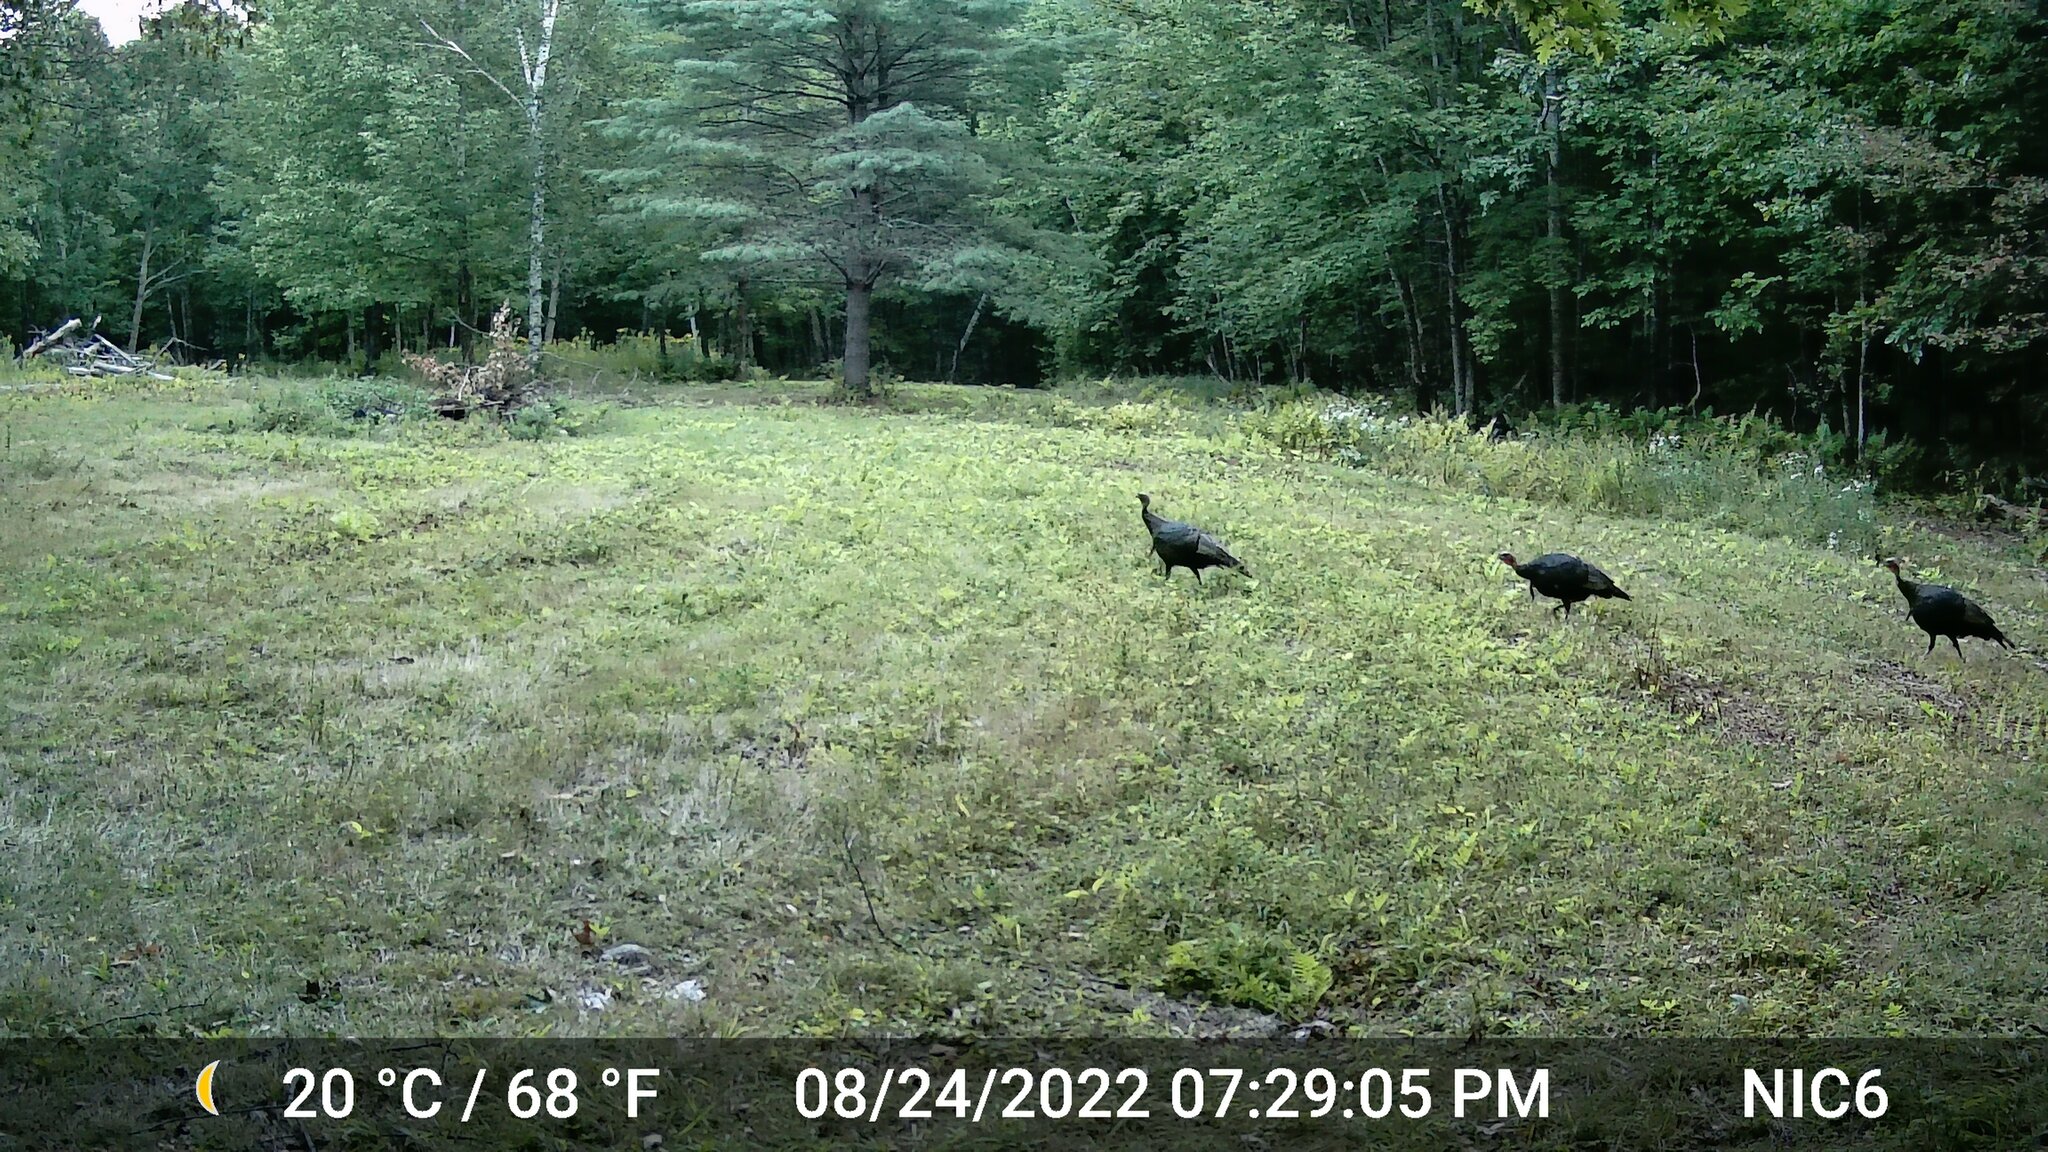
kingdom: Animalia
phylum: Chordata
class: Aves
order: Galliformes
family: Phasianidae
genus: Meleagris
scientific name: Meleagris gallopavo
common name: Wild turkey
